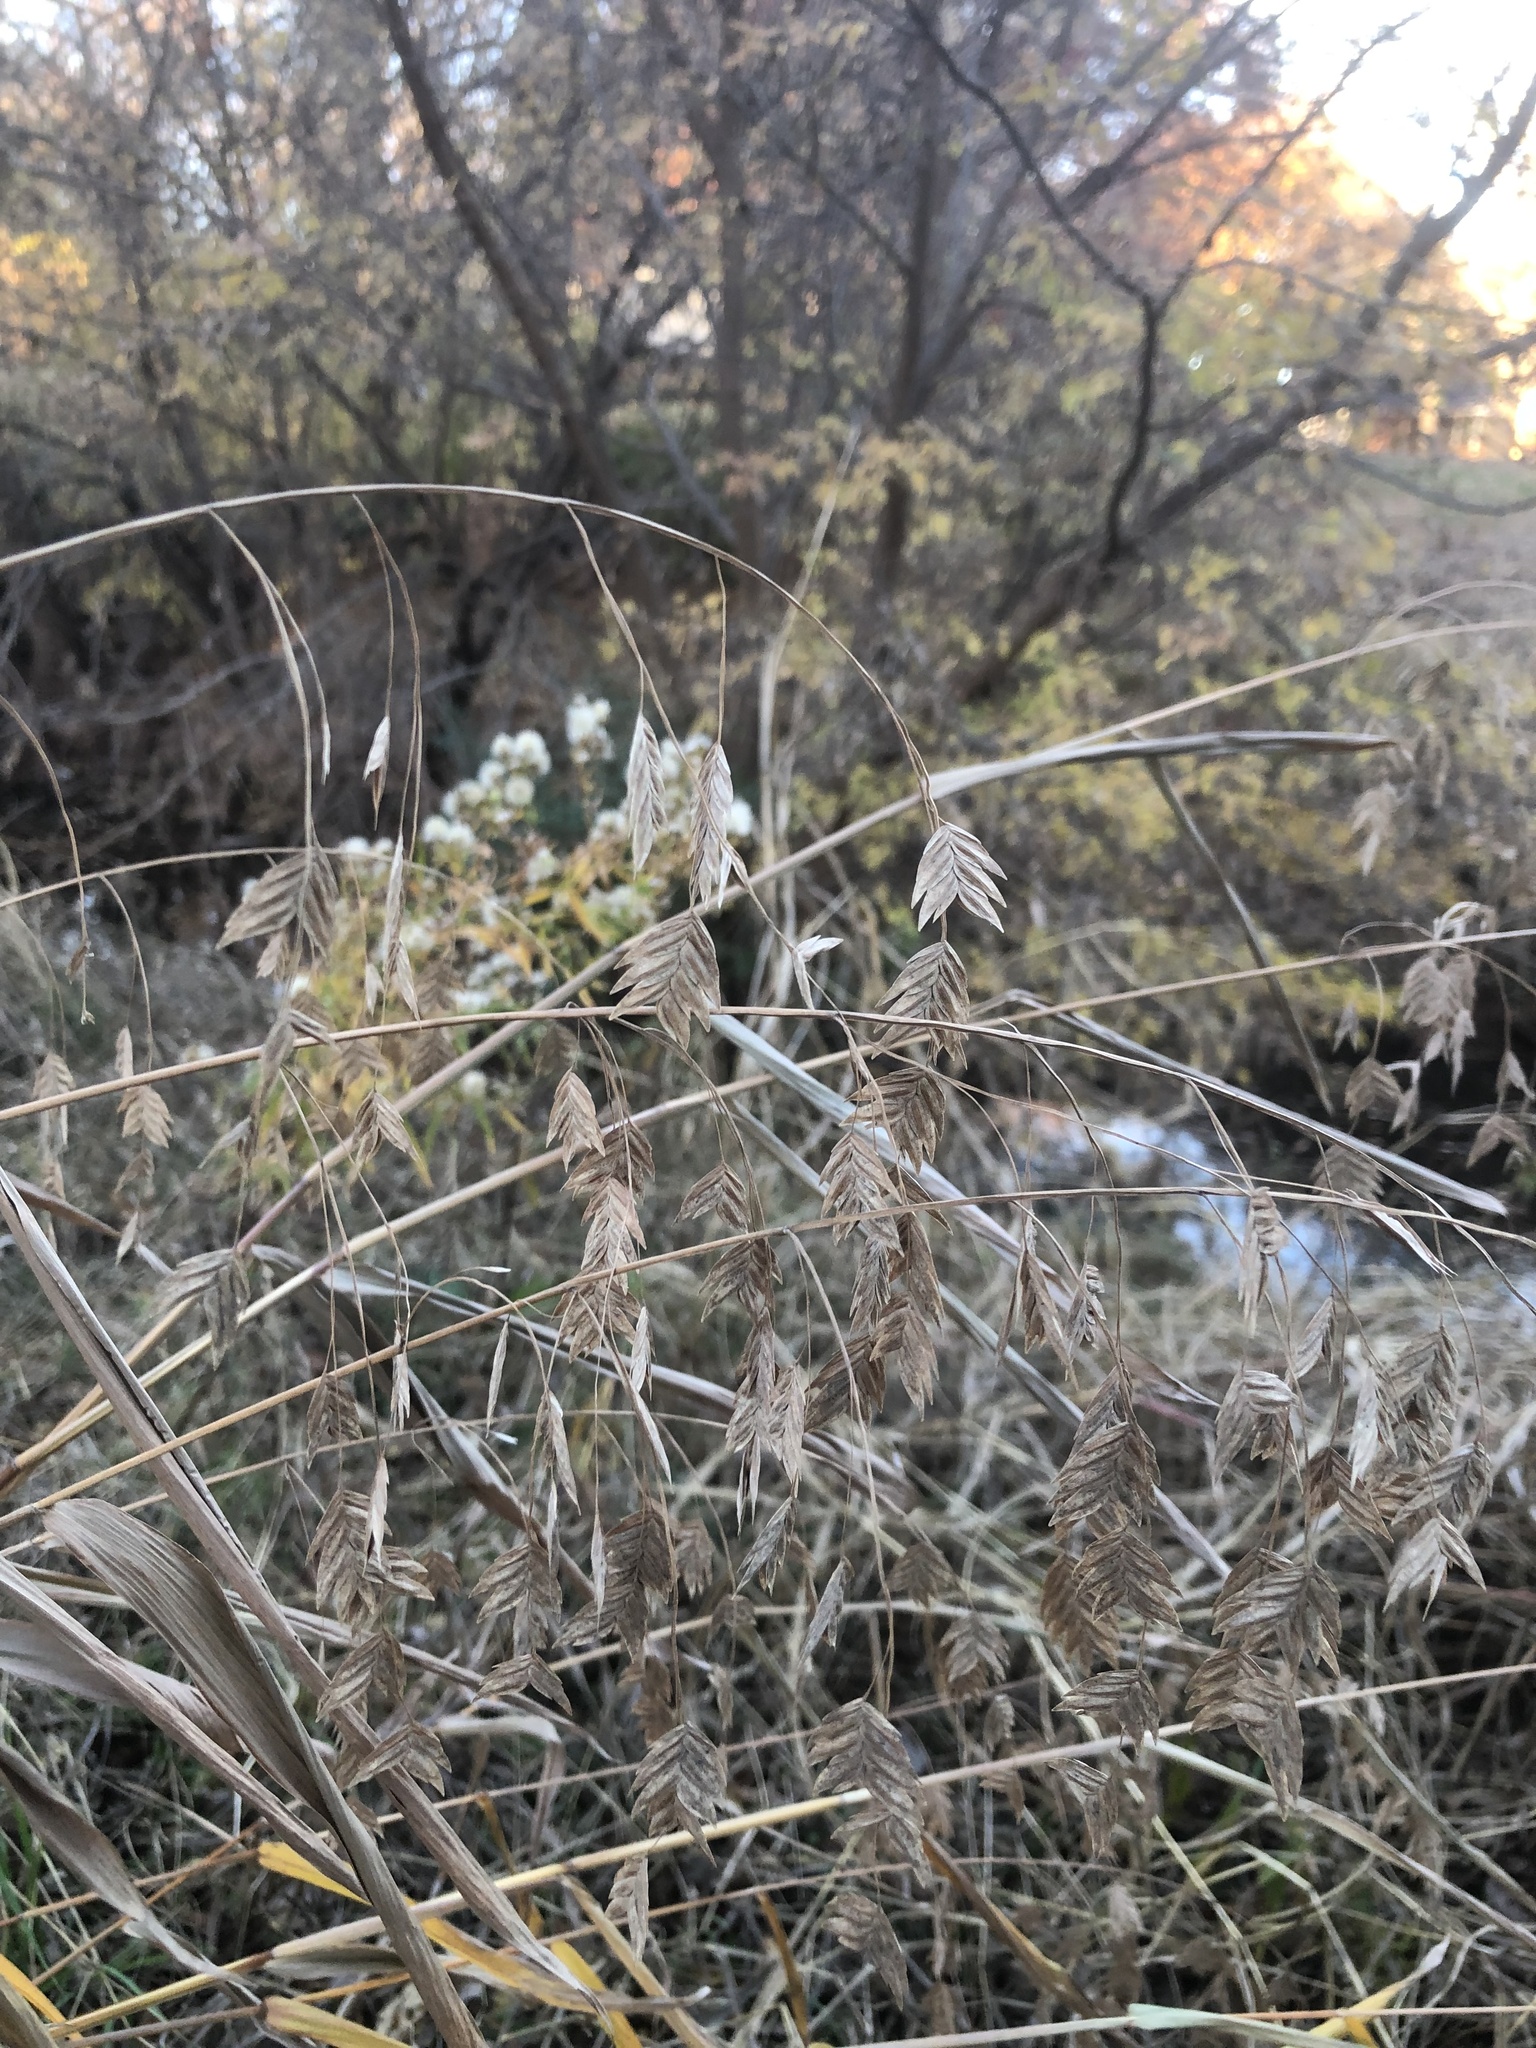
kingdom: Plantae
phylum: Tracheophyta
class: Liliopsida
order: Poales
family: Poaceae
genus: Chasmanthium
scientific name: Chasmanthium latifolium
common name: Broad-leaved chasmanthium
